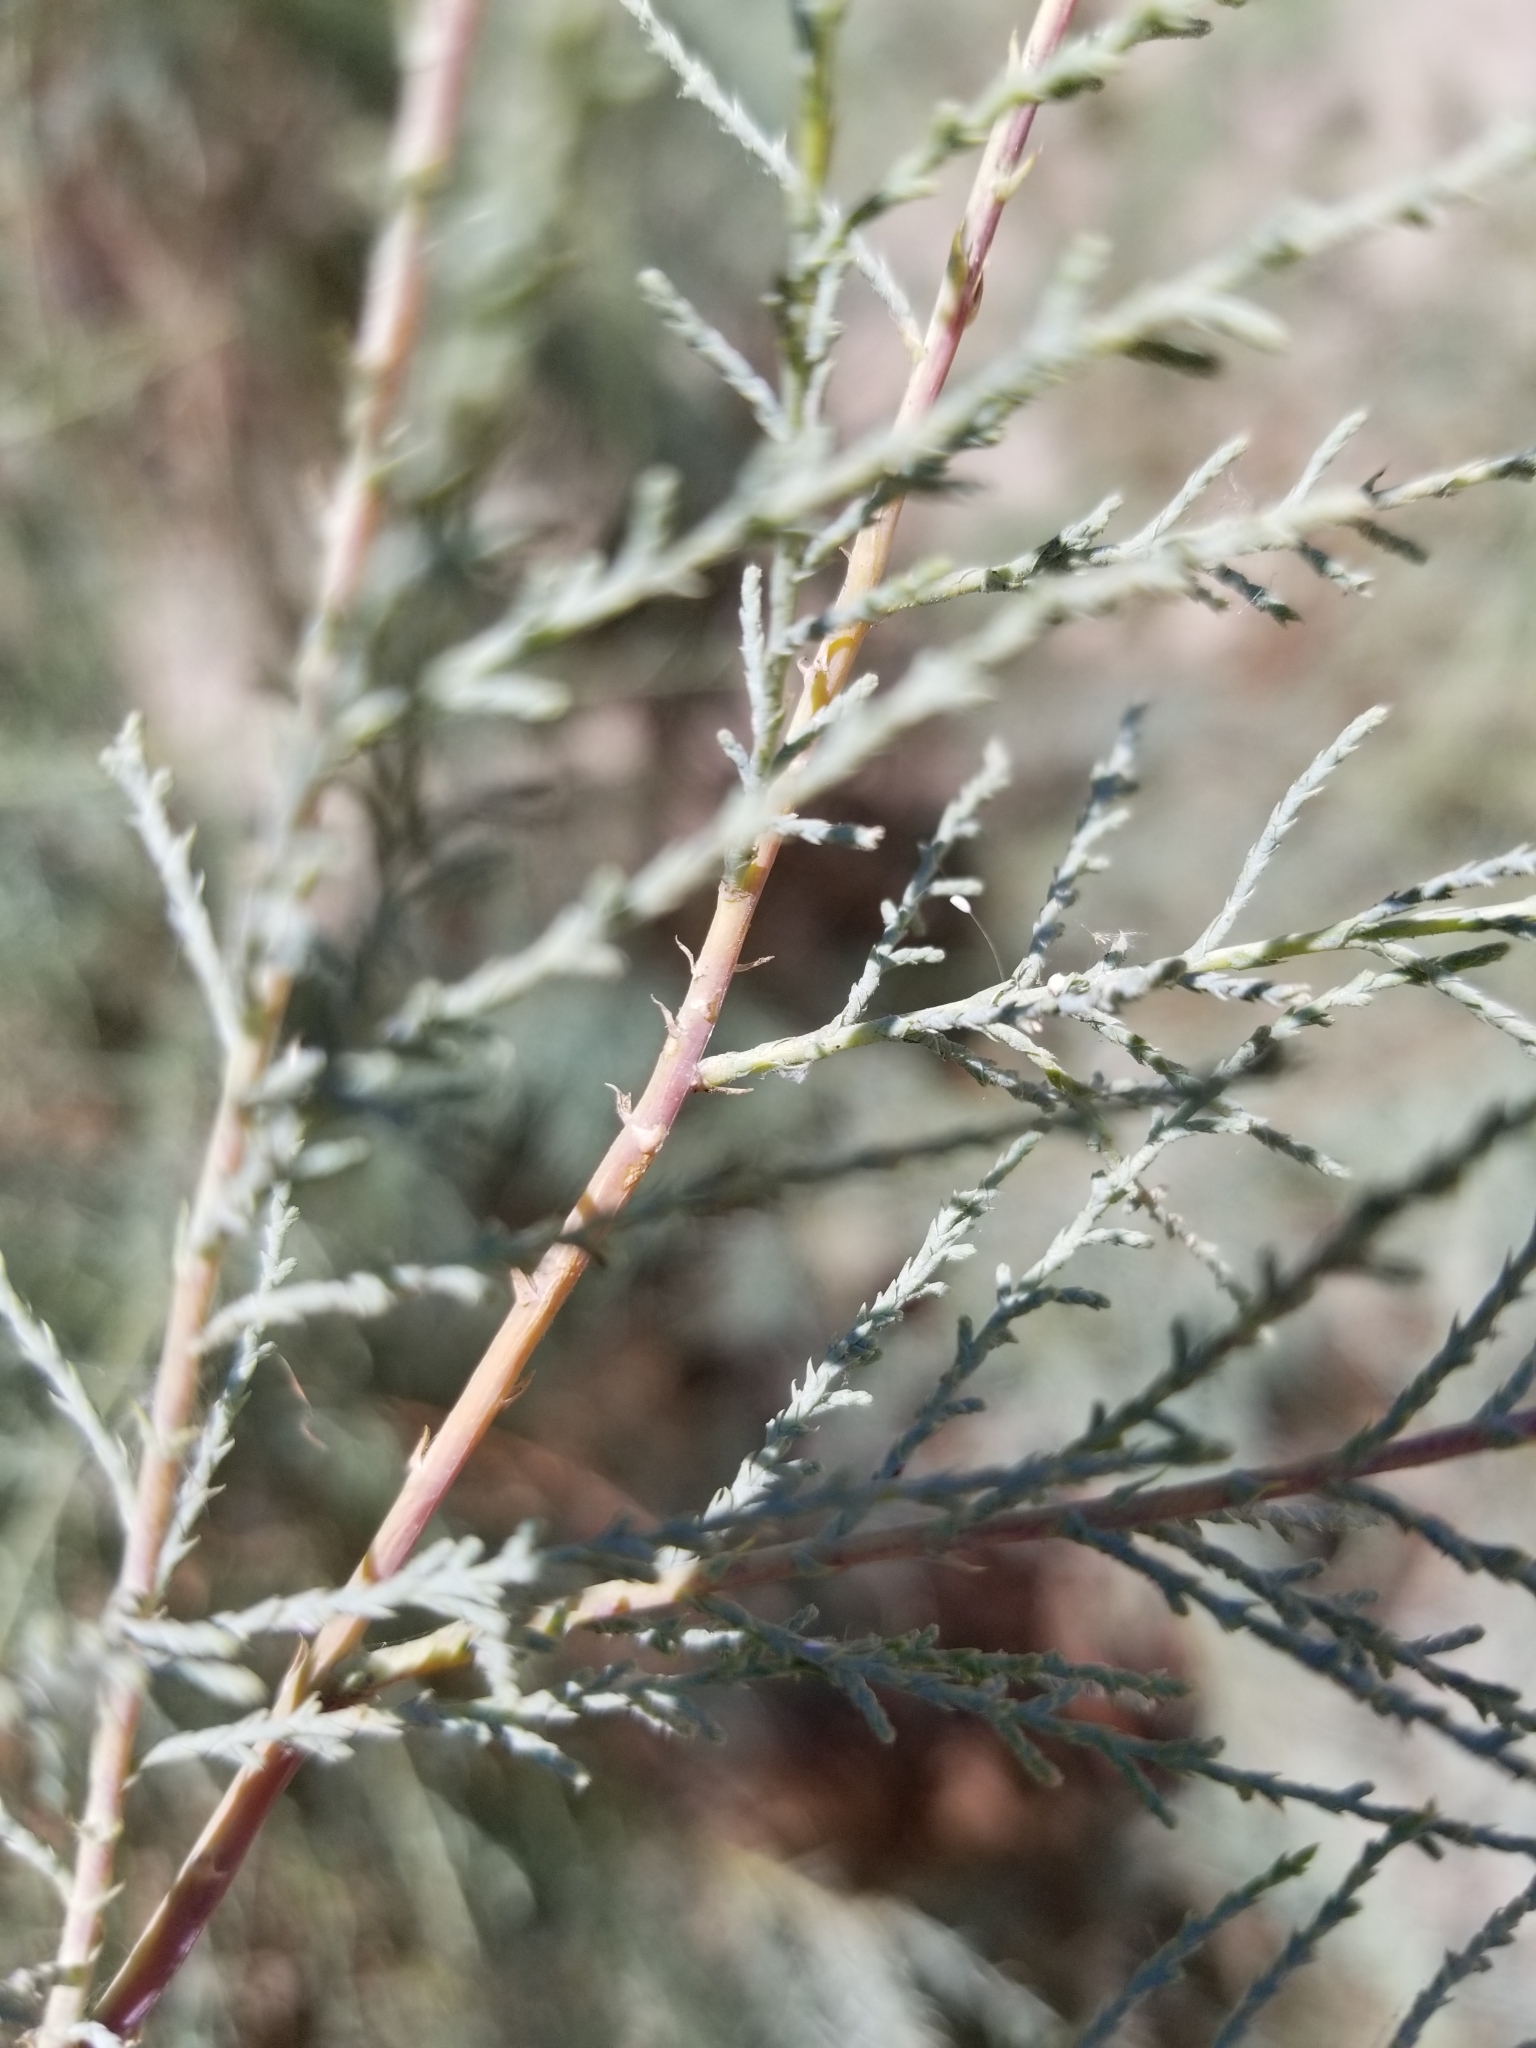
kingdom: Plantae
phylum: Tracheophyta
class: Magnoliopsida
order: Caryophyllales
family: Tamaricaceae
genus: Tamarix
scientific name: Tamarix ramosissima
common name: Pink tamarisk
